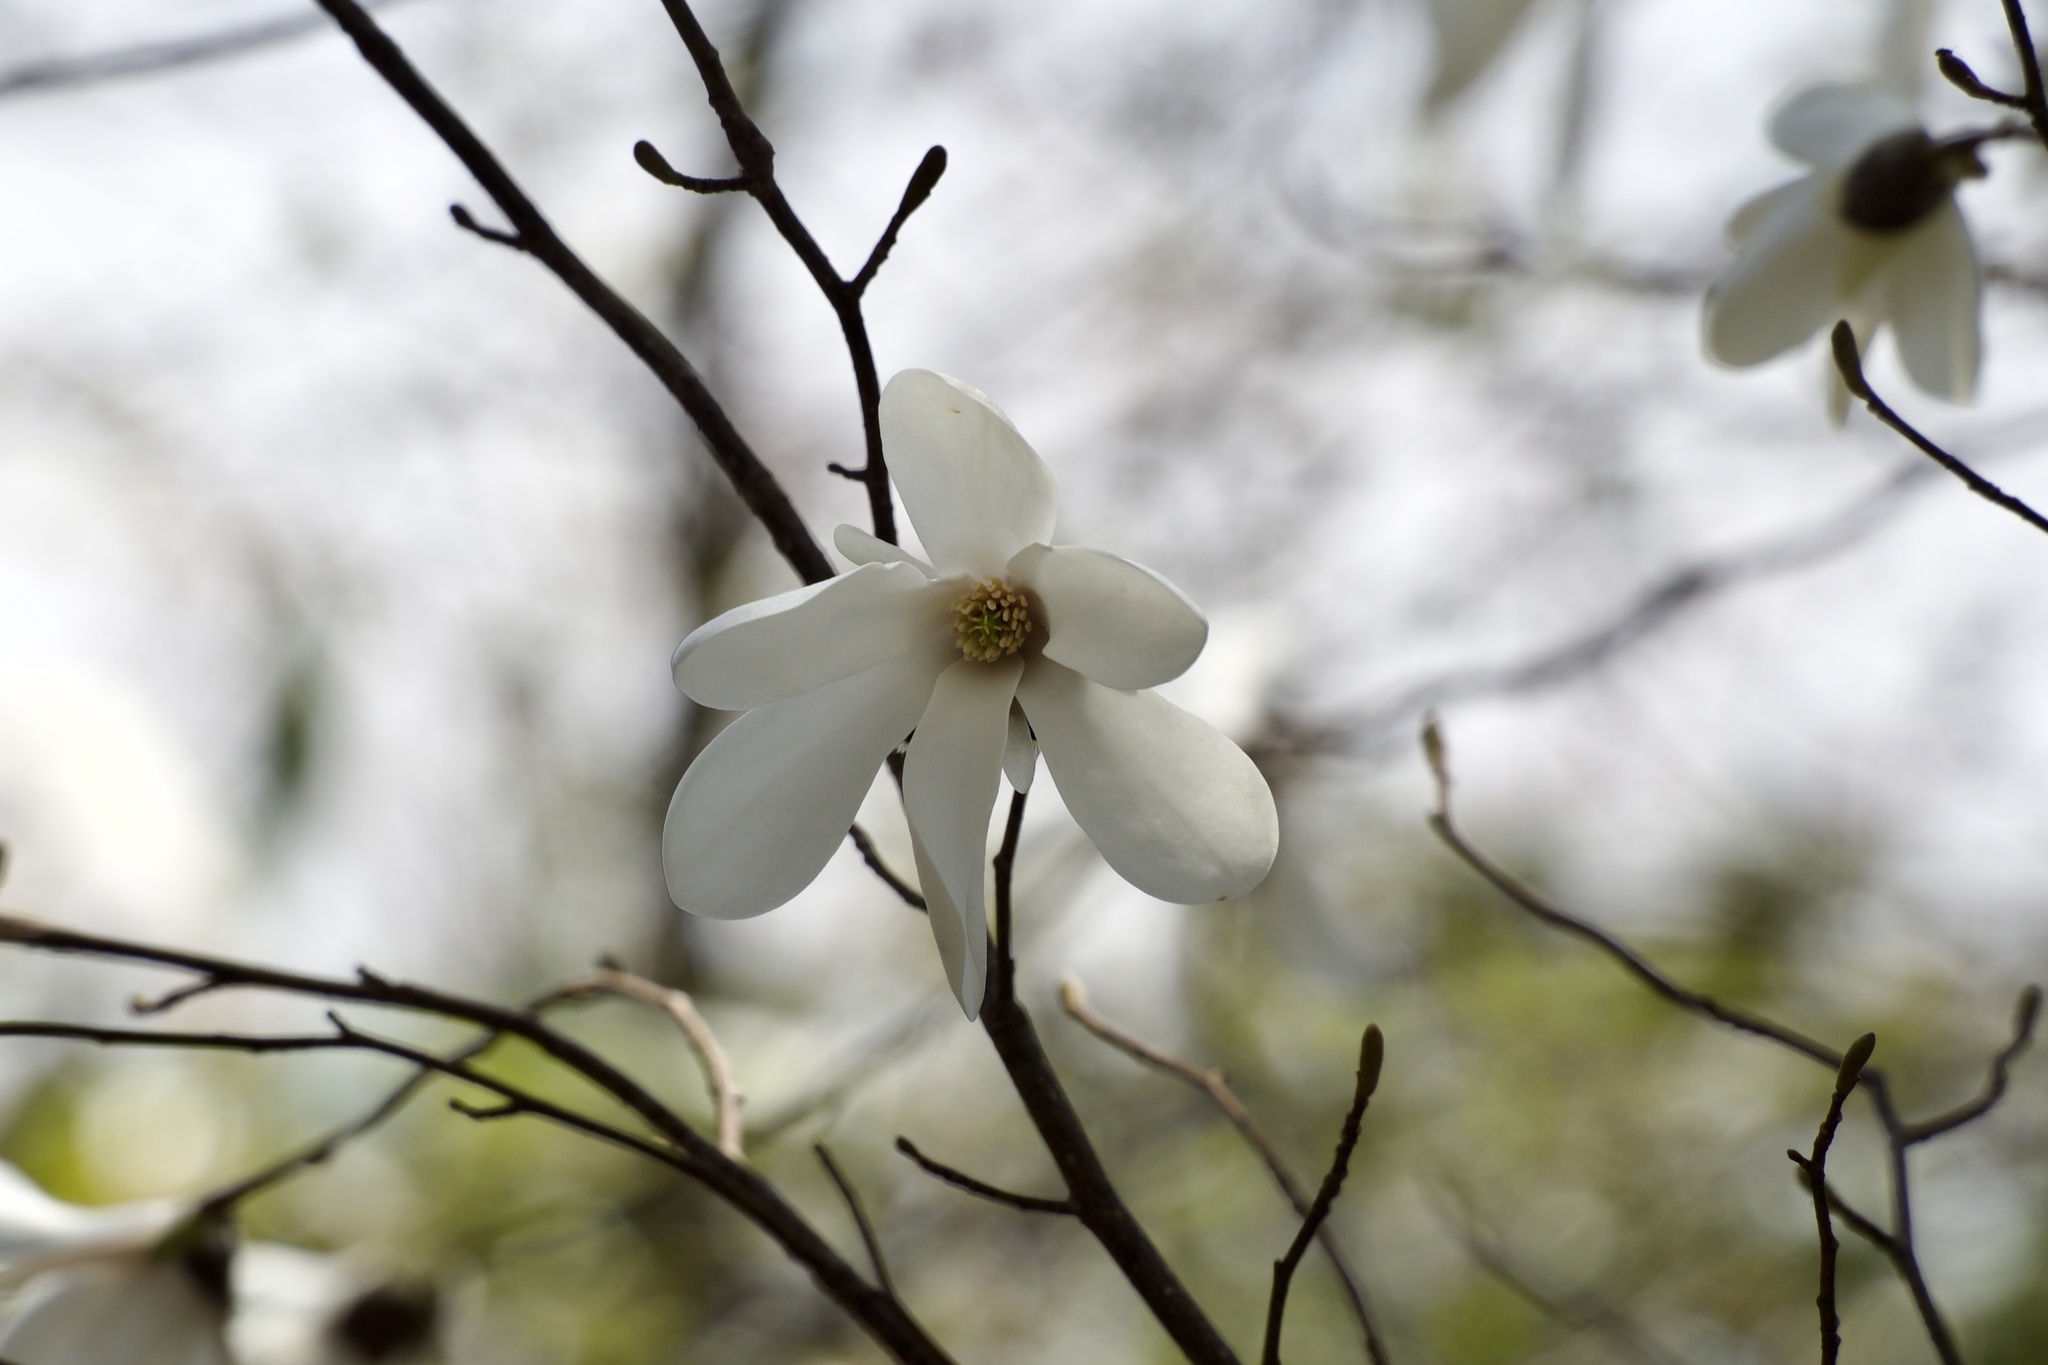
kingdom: Plantae
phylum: Tracheophyta
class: Magnoliopsida
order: Magnoliales
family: Magnoliaceae
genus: Magnolia
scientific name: Magnolia salicifolia
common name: Anise magnolia
